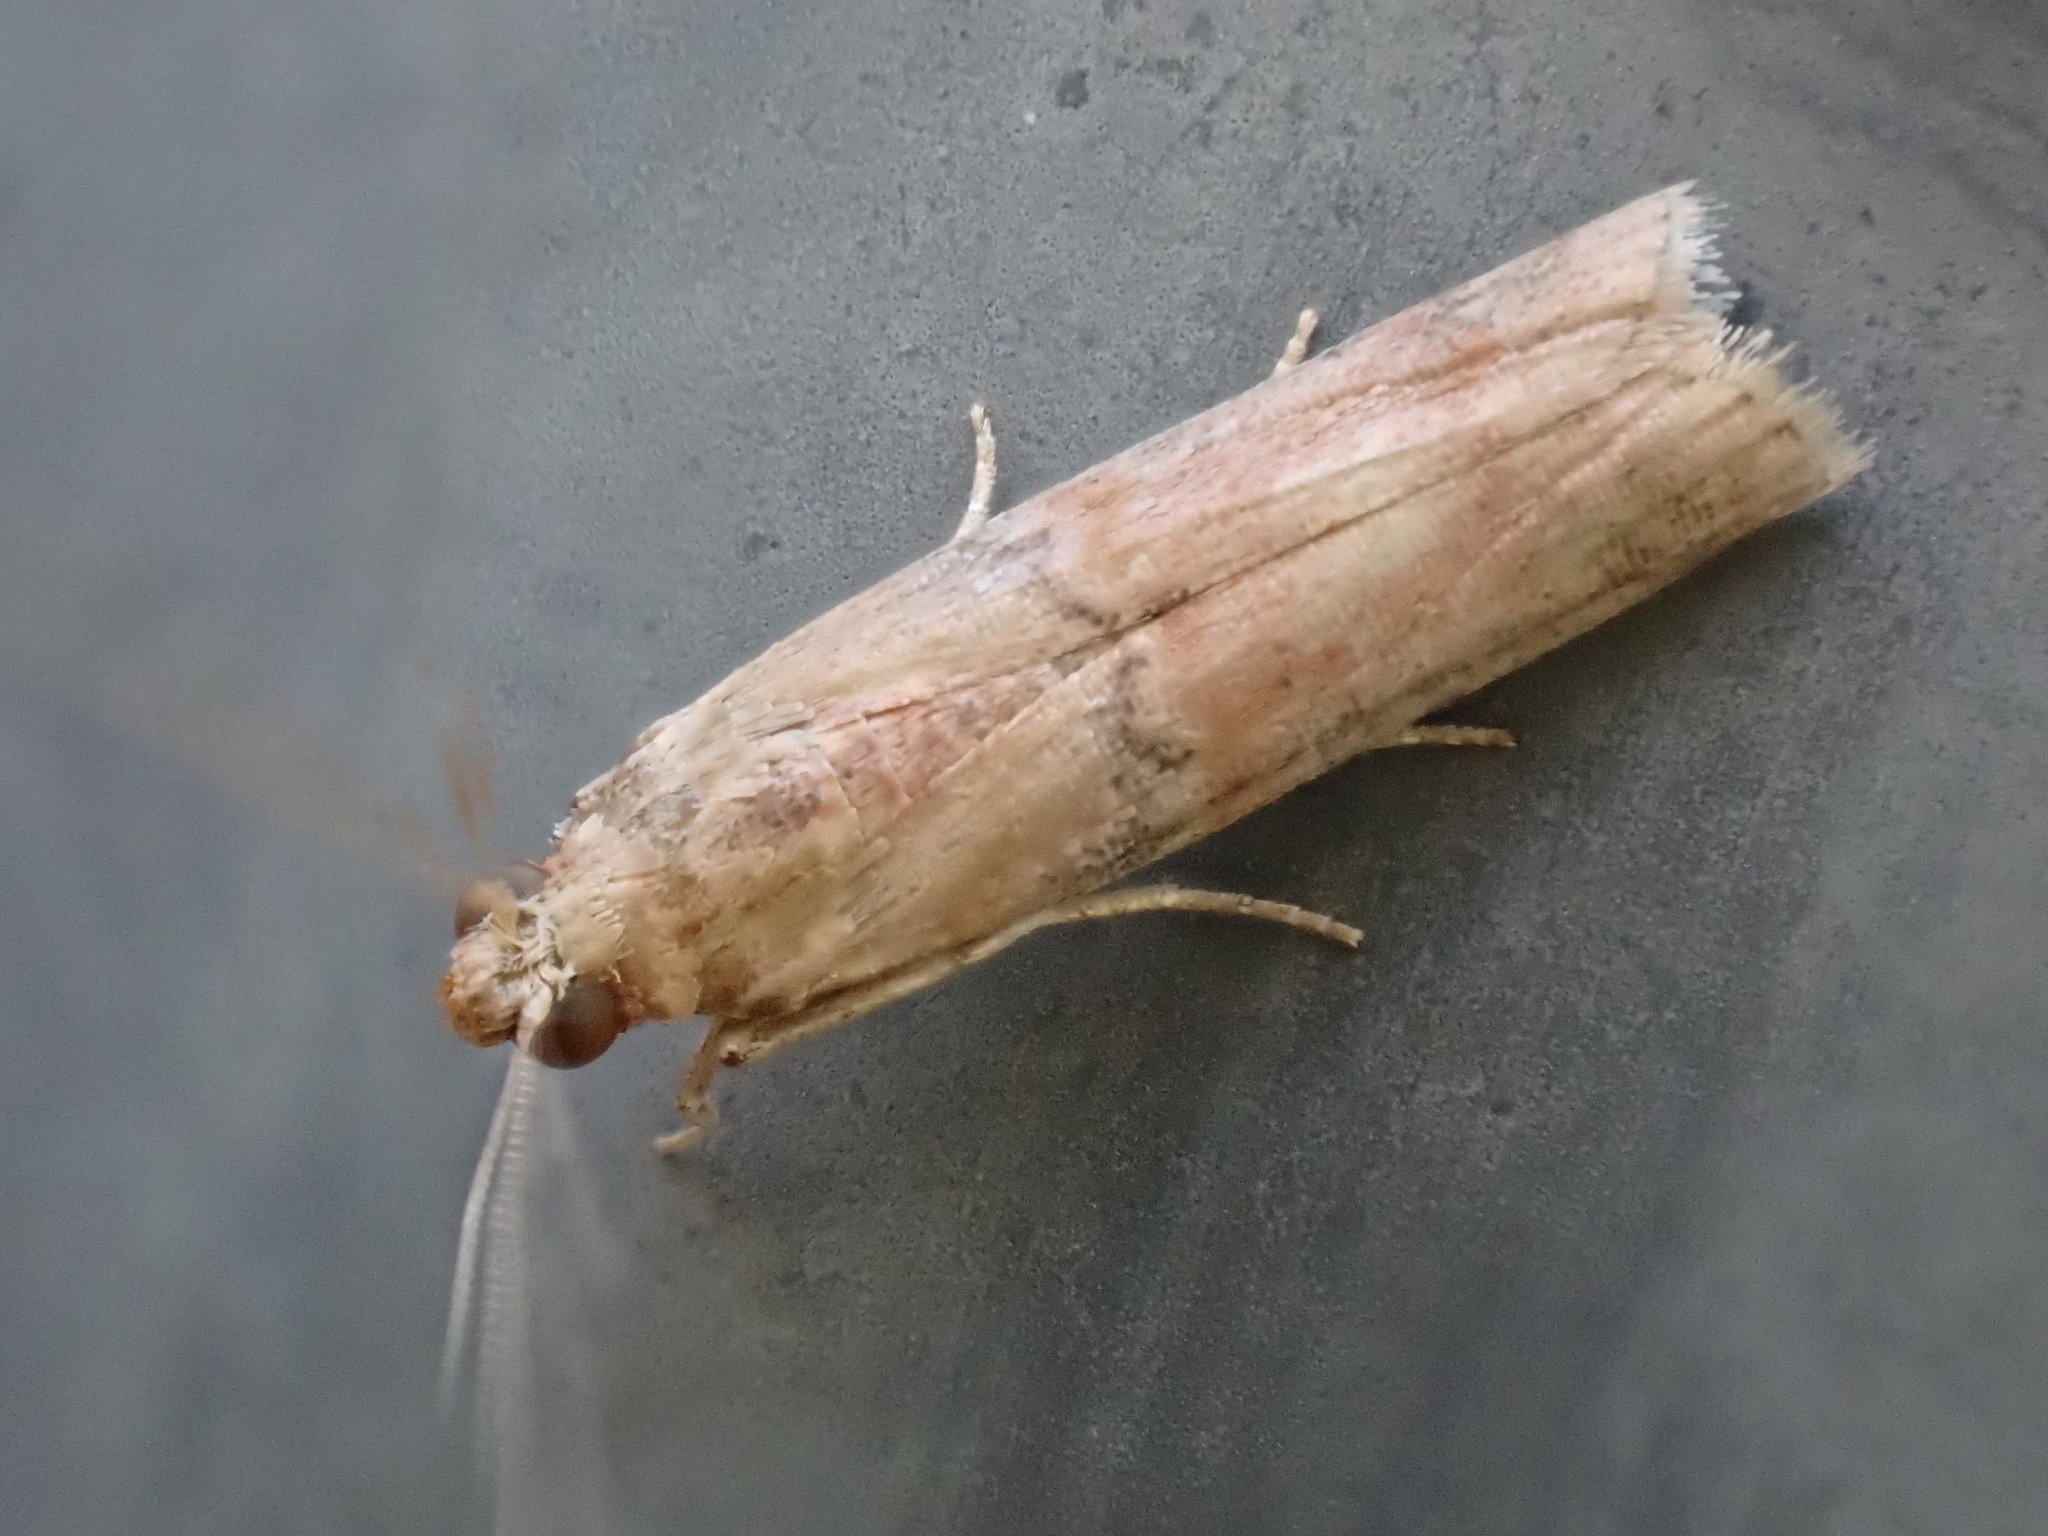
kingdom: Animalia
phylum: Arthropoda
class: Insecta
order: Lepidoptera
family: Pyralidae
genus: Atheloca
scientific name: Atheloca subrufella
